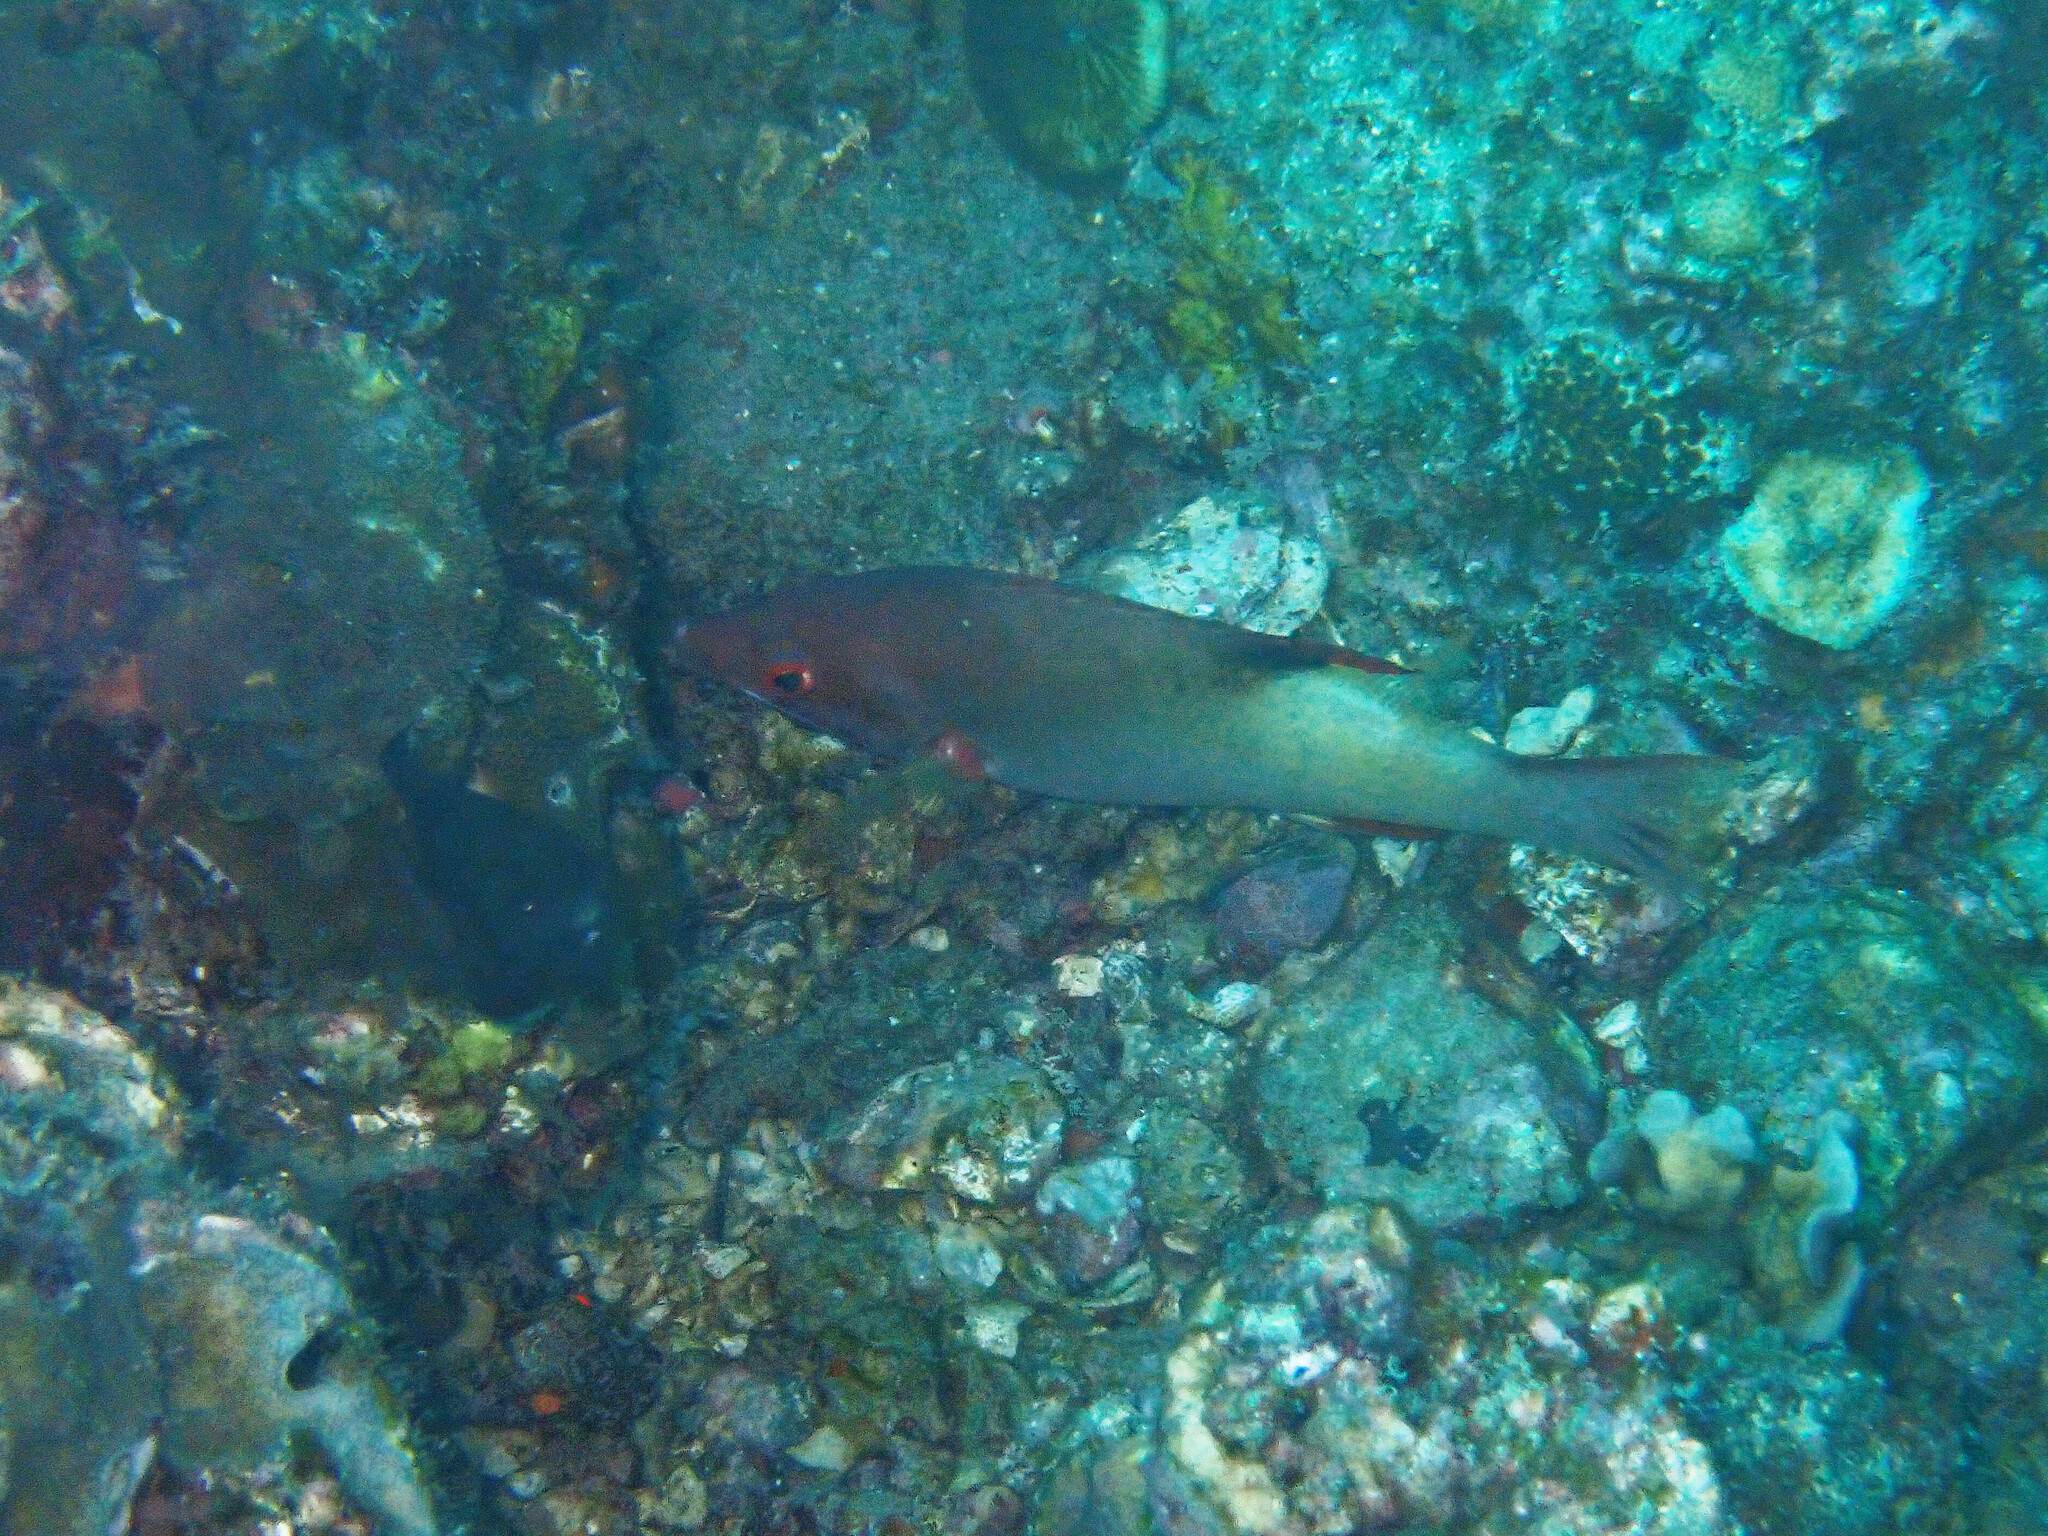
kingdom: Animalia
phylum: Chordata
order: Perciformes
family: Labridae
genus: Bodianus
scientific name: Bodianus neilli
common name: Bay of bengal hogfish
